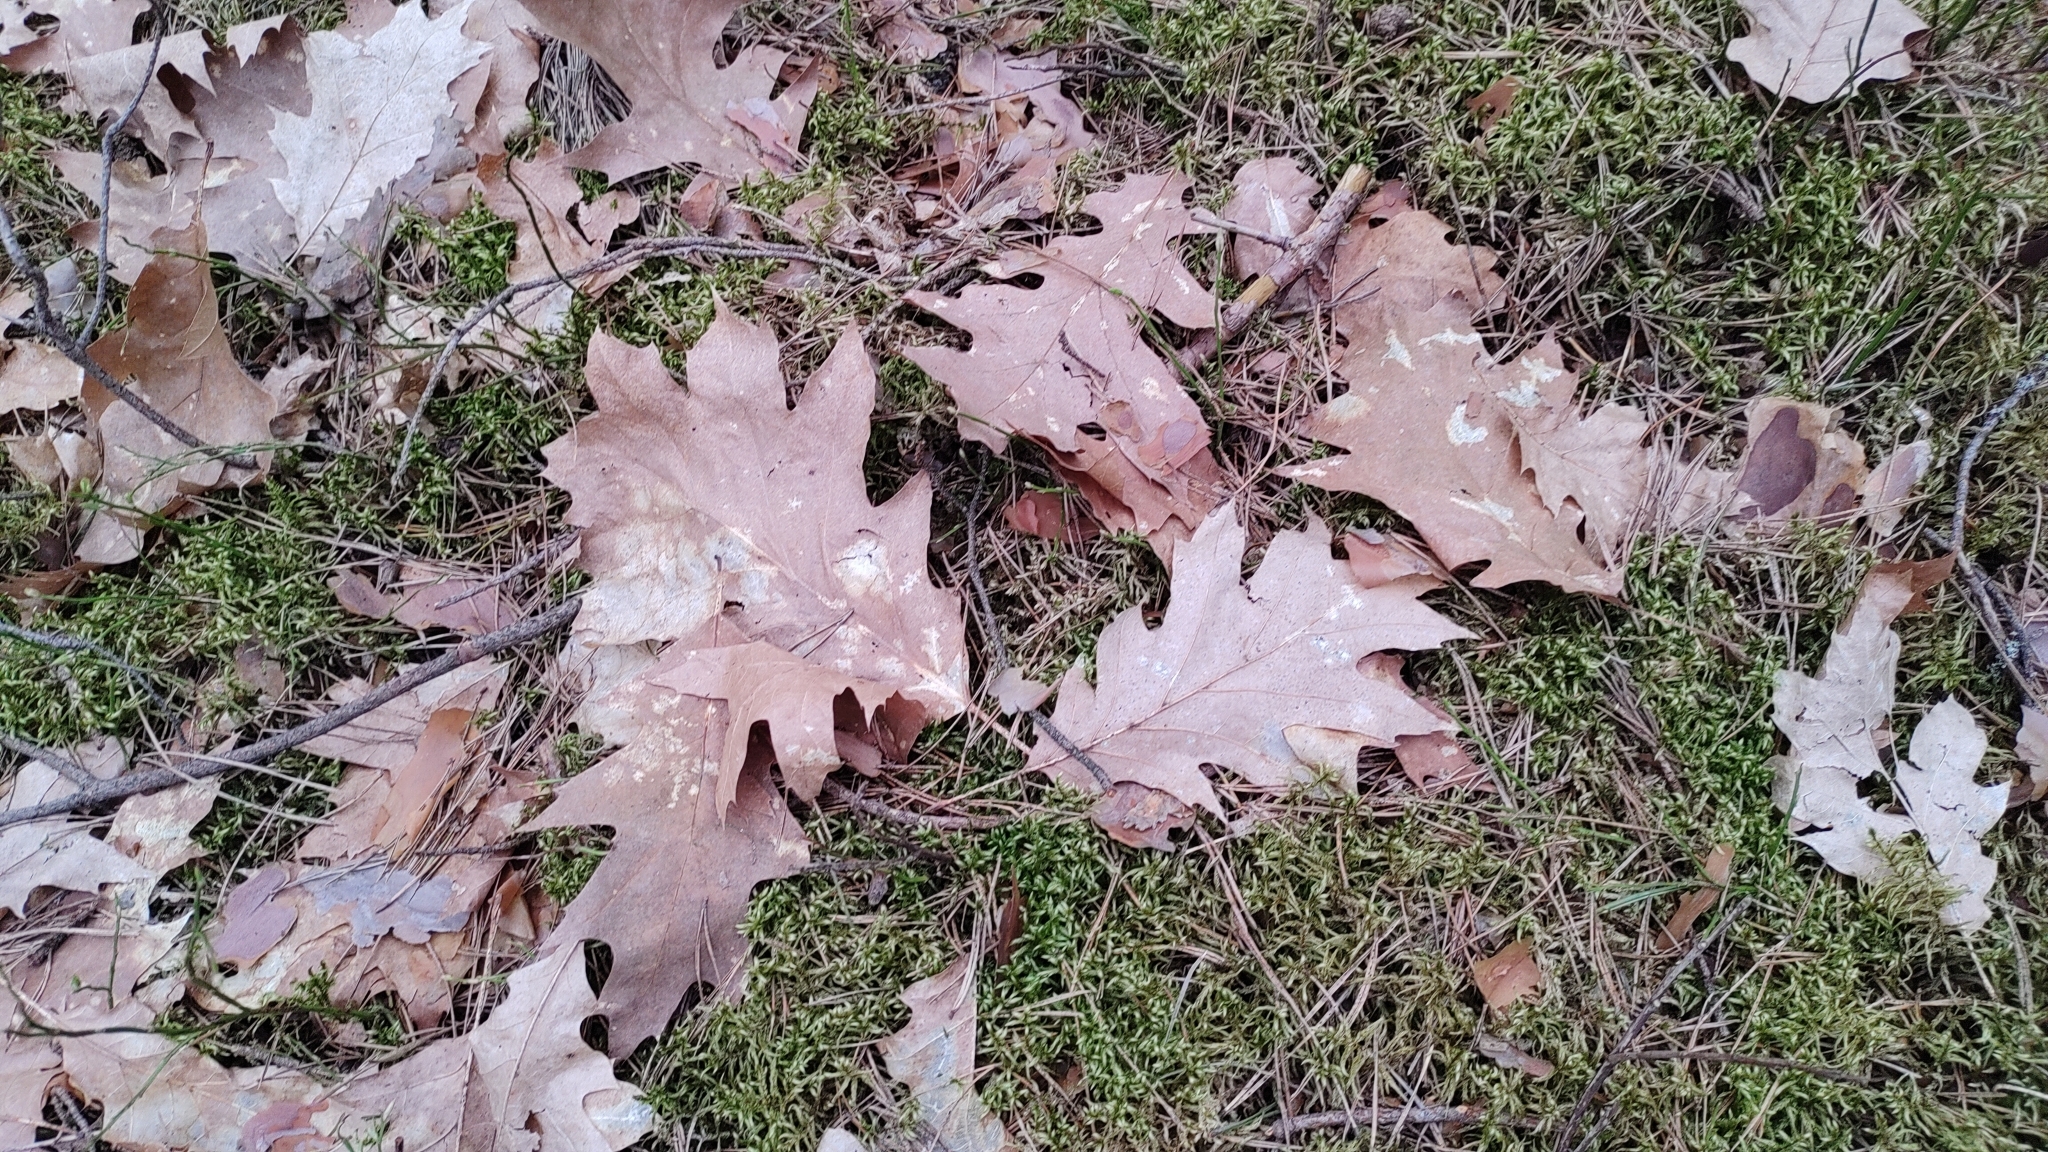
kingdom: Plantae
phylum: Tracheophyta
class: Magnoliopsida
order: Fagales
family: Fagaceae
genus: Quercus
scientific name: Quercus rubra
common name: Red oak
